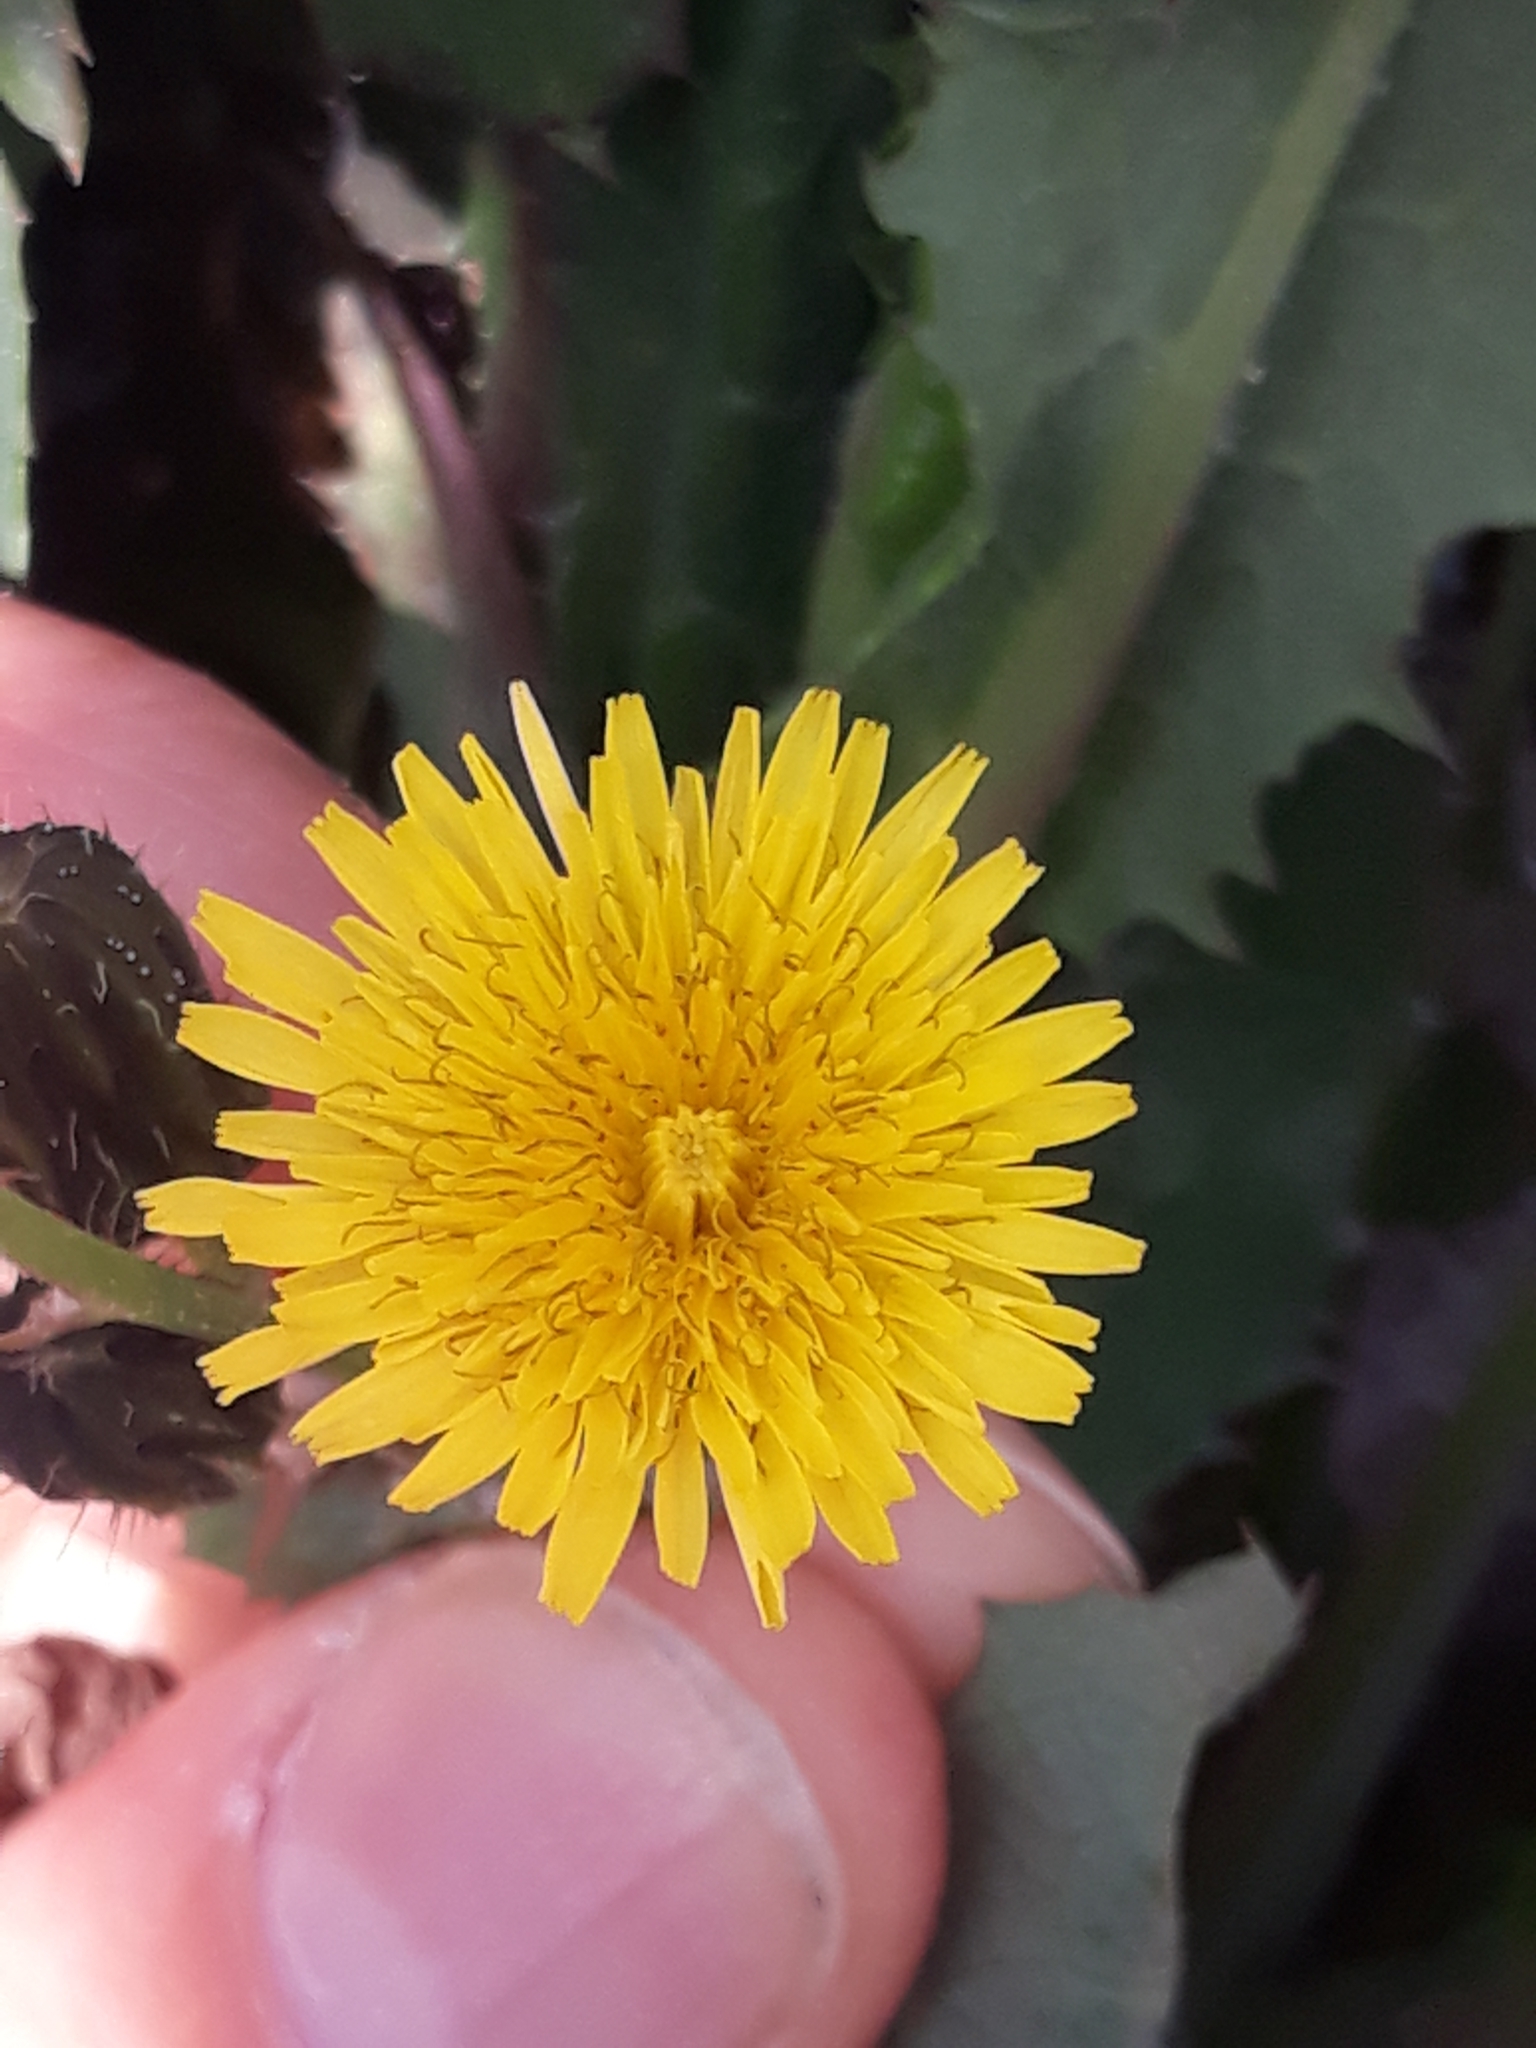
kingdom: Plantae
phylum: Tracheophyta
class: Magnoliopsida
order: Asterales
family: Asteraceae
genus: Sonchus
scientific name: Sonchus oleraceus
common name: Common sowthistle
